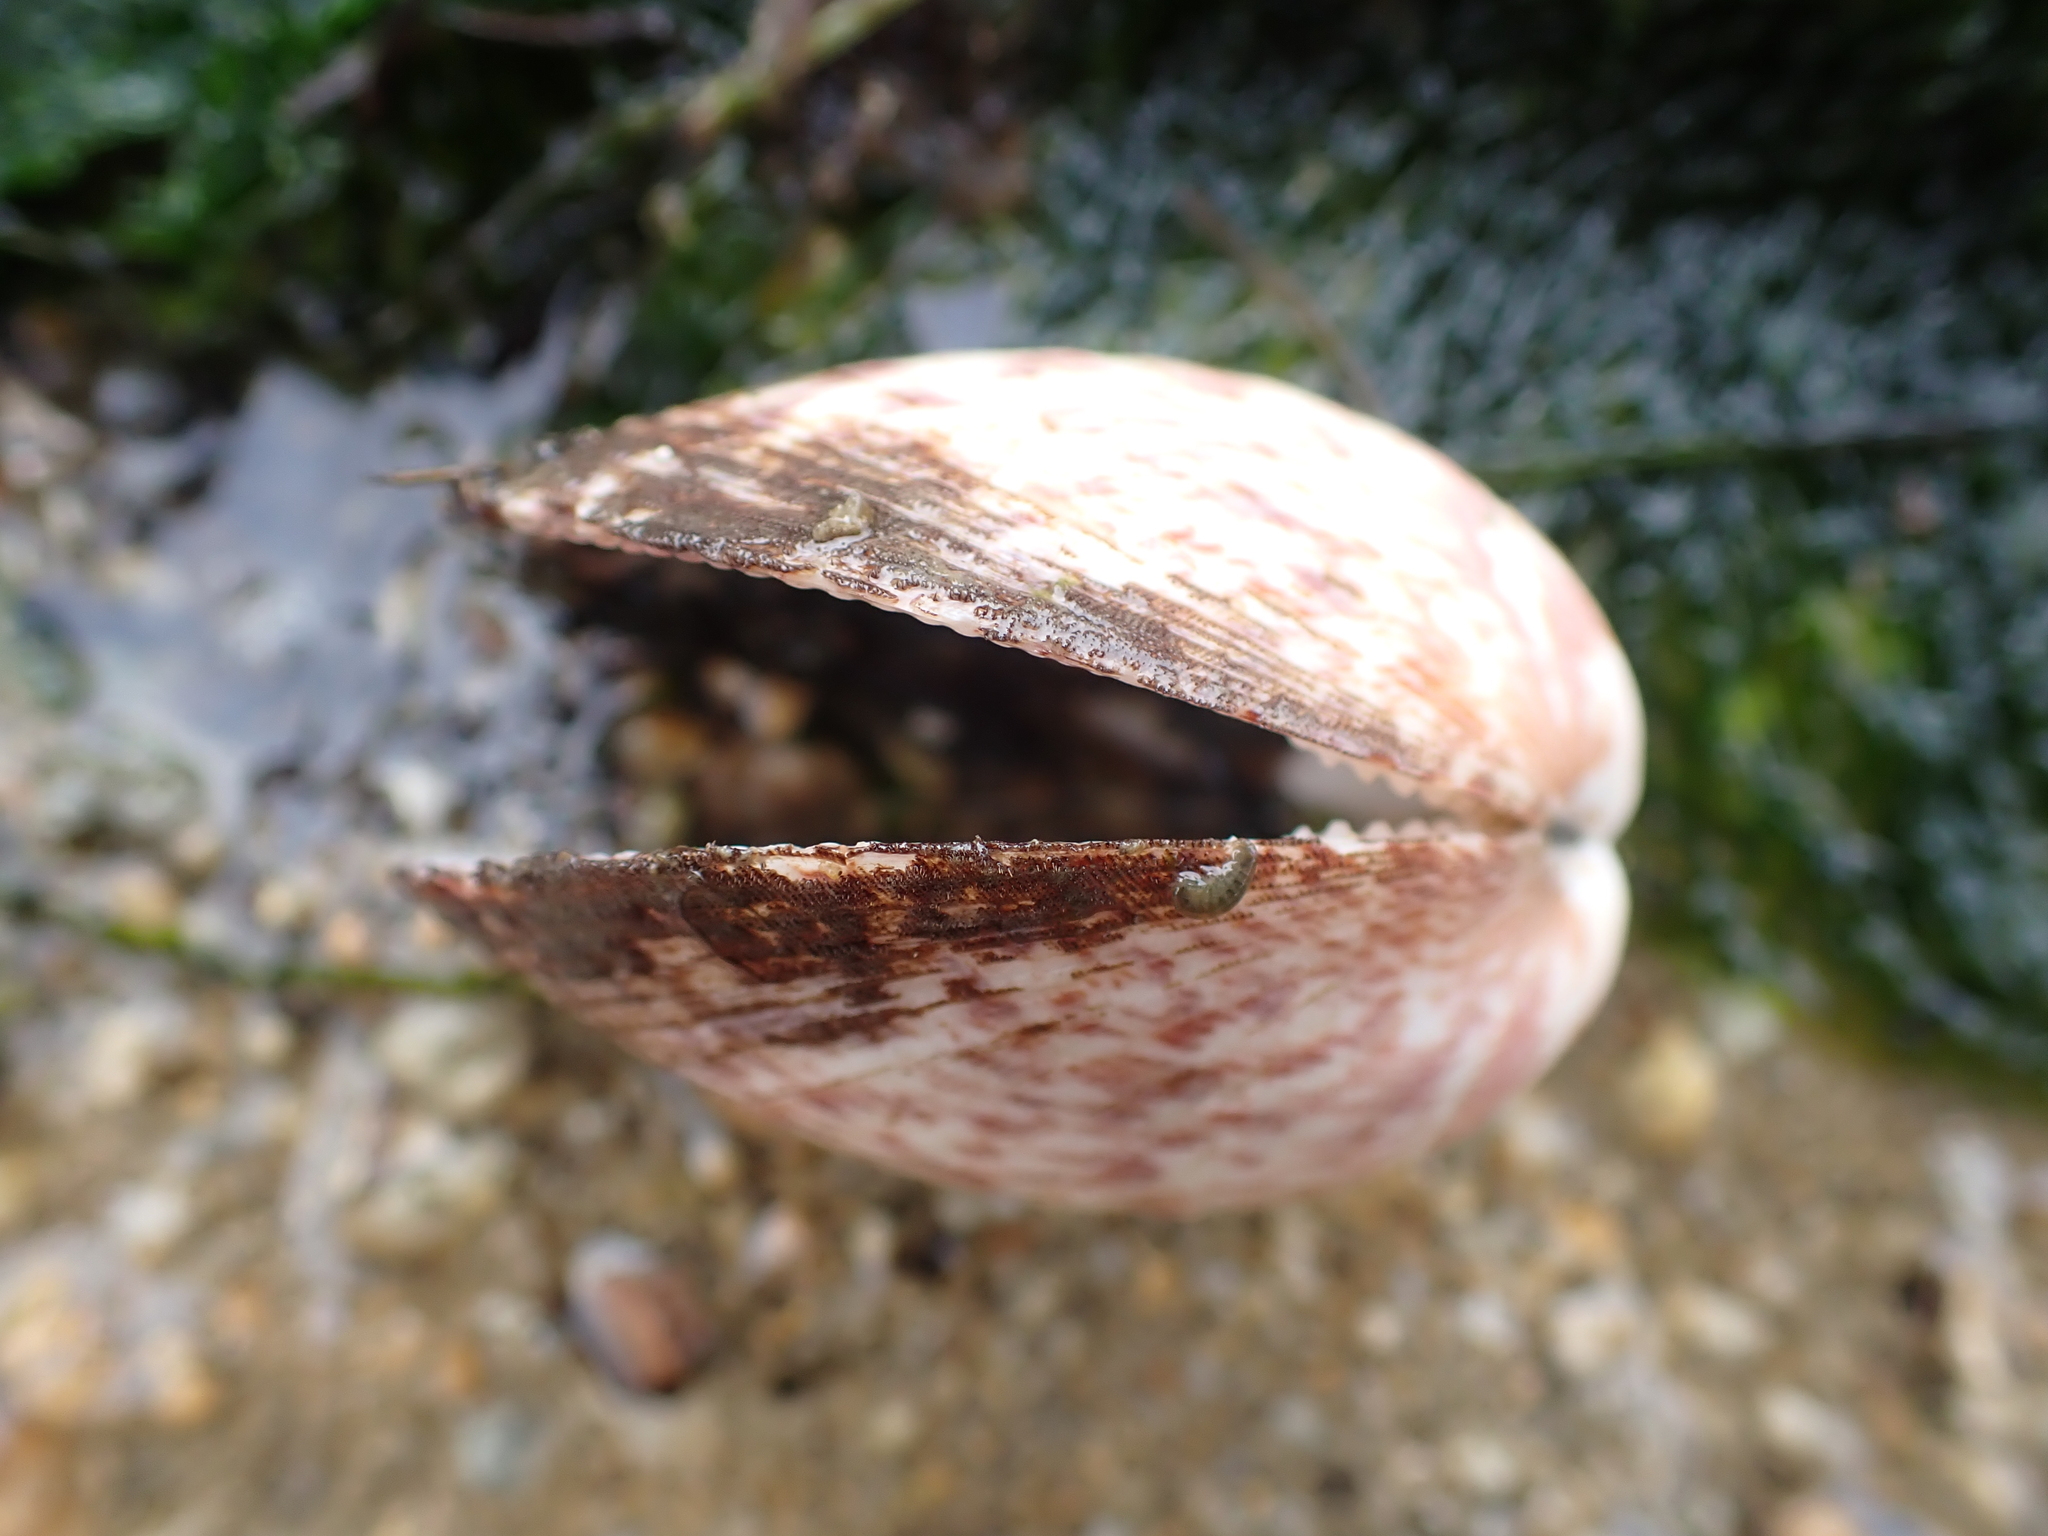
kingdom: Animalia
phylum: Mollusca
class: Bivalvia
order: Arcida
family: Glycymerididae
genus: Glycymeris
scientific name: Glycymeris glycymeris
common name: Dog-cockle
